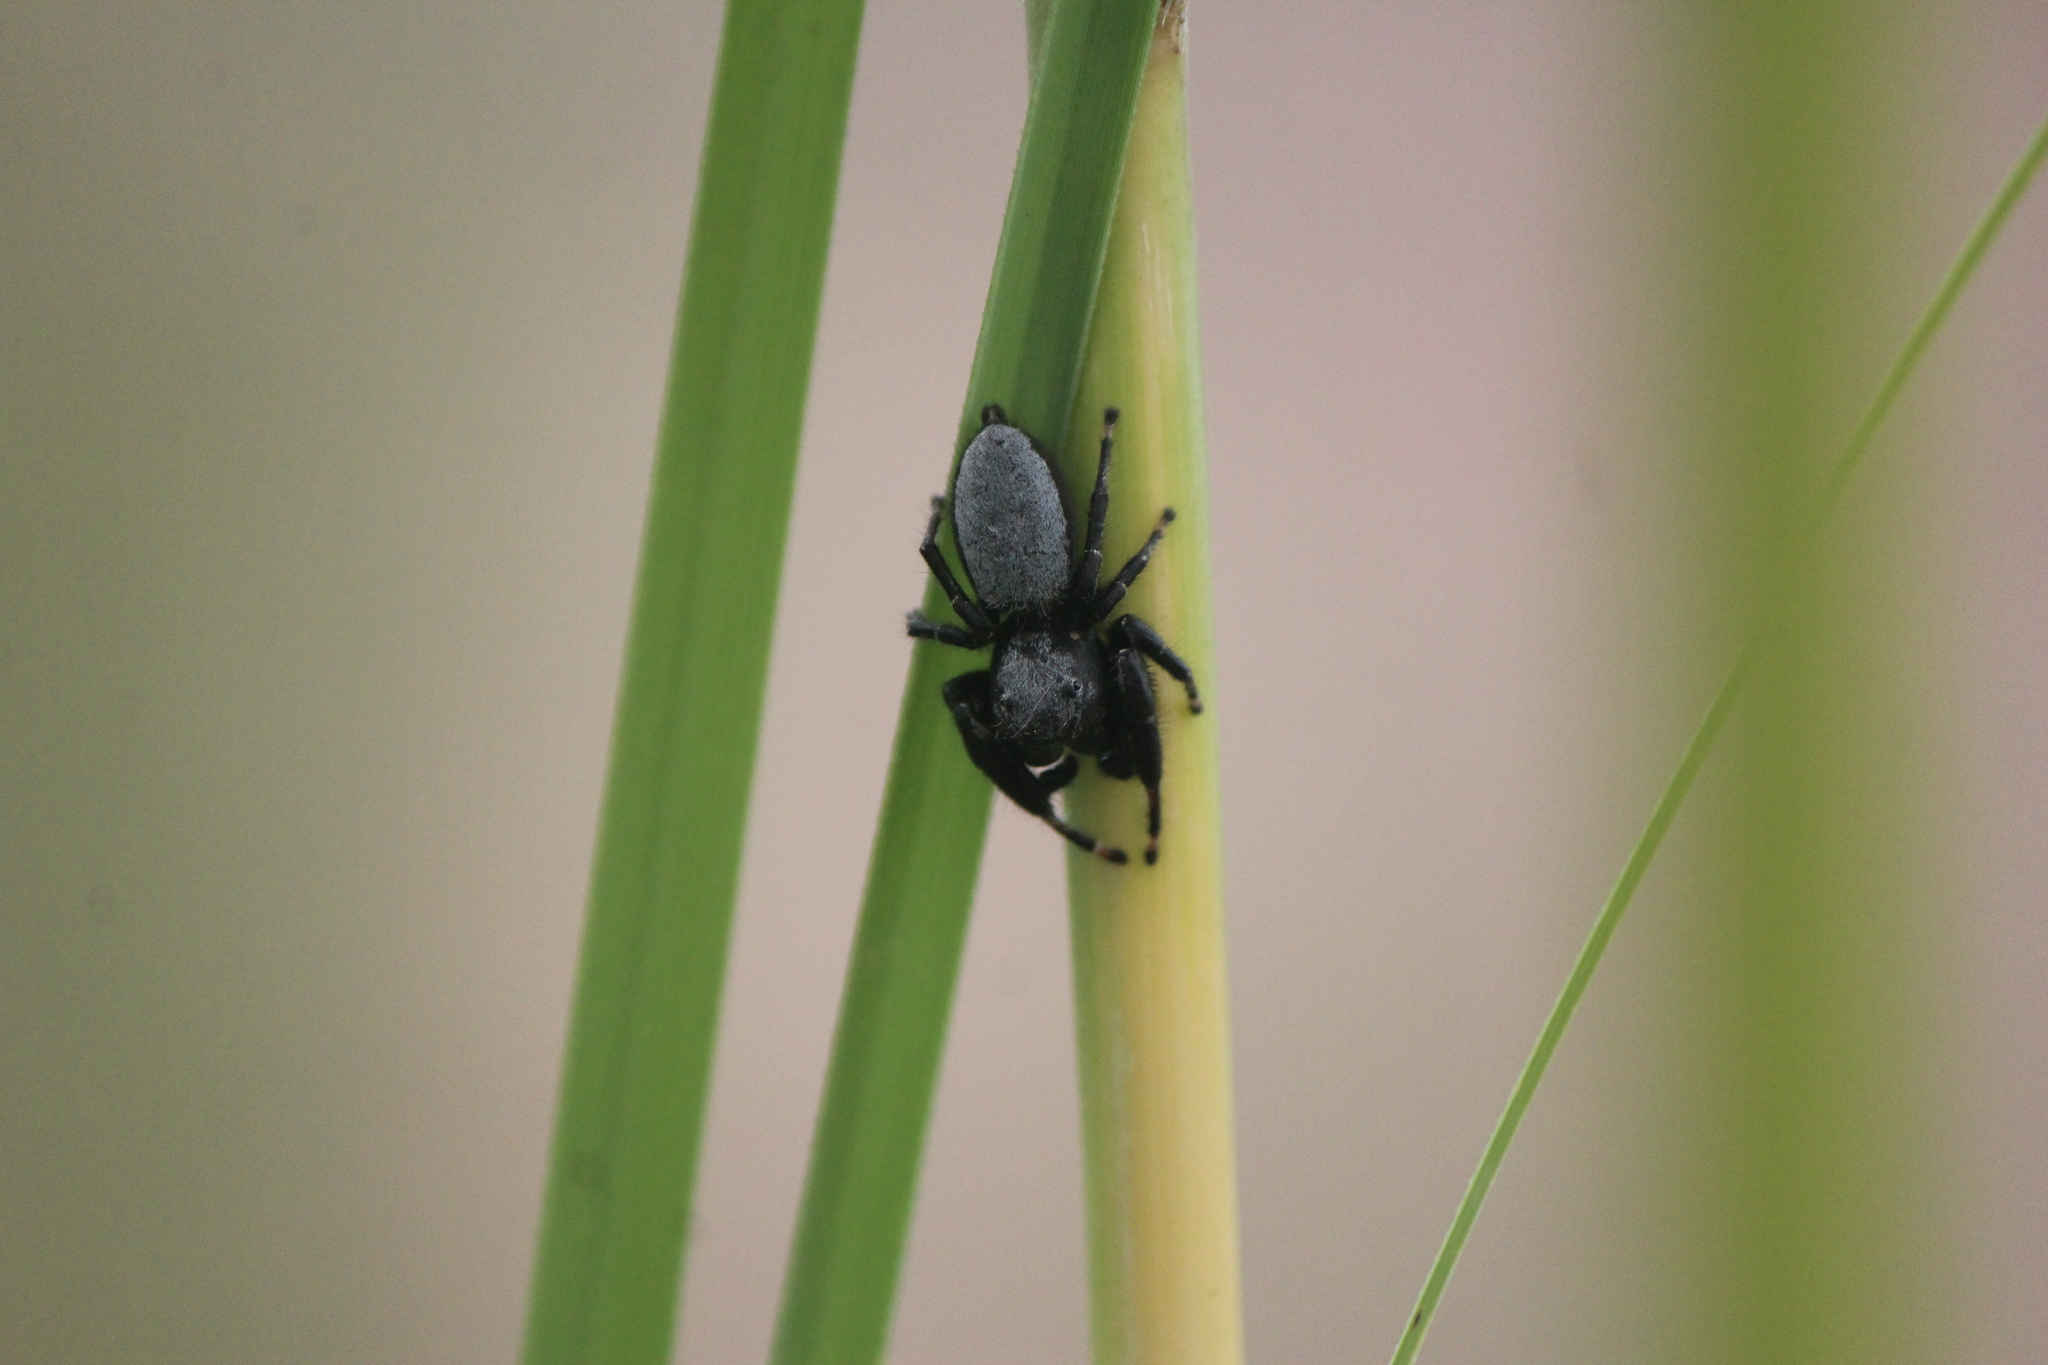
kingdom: Animalia
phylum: Arthropoda
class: Arachnida
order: Araneae
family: Salticidae
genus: Phidippus
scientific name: Phidippus octopunctatus
